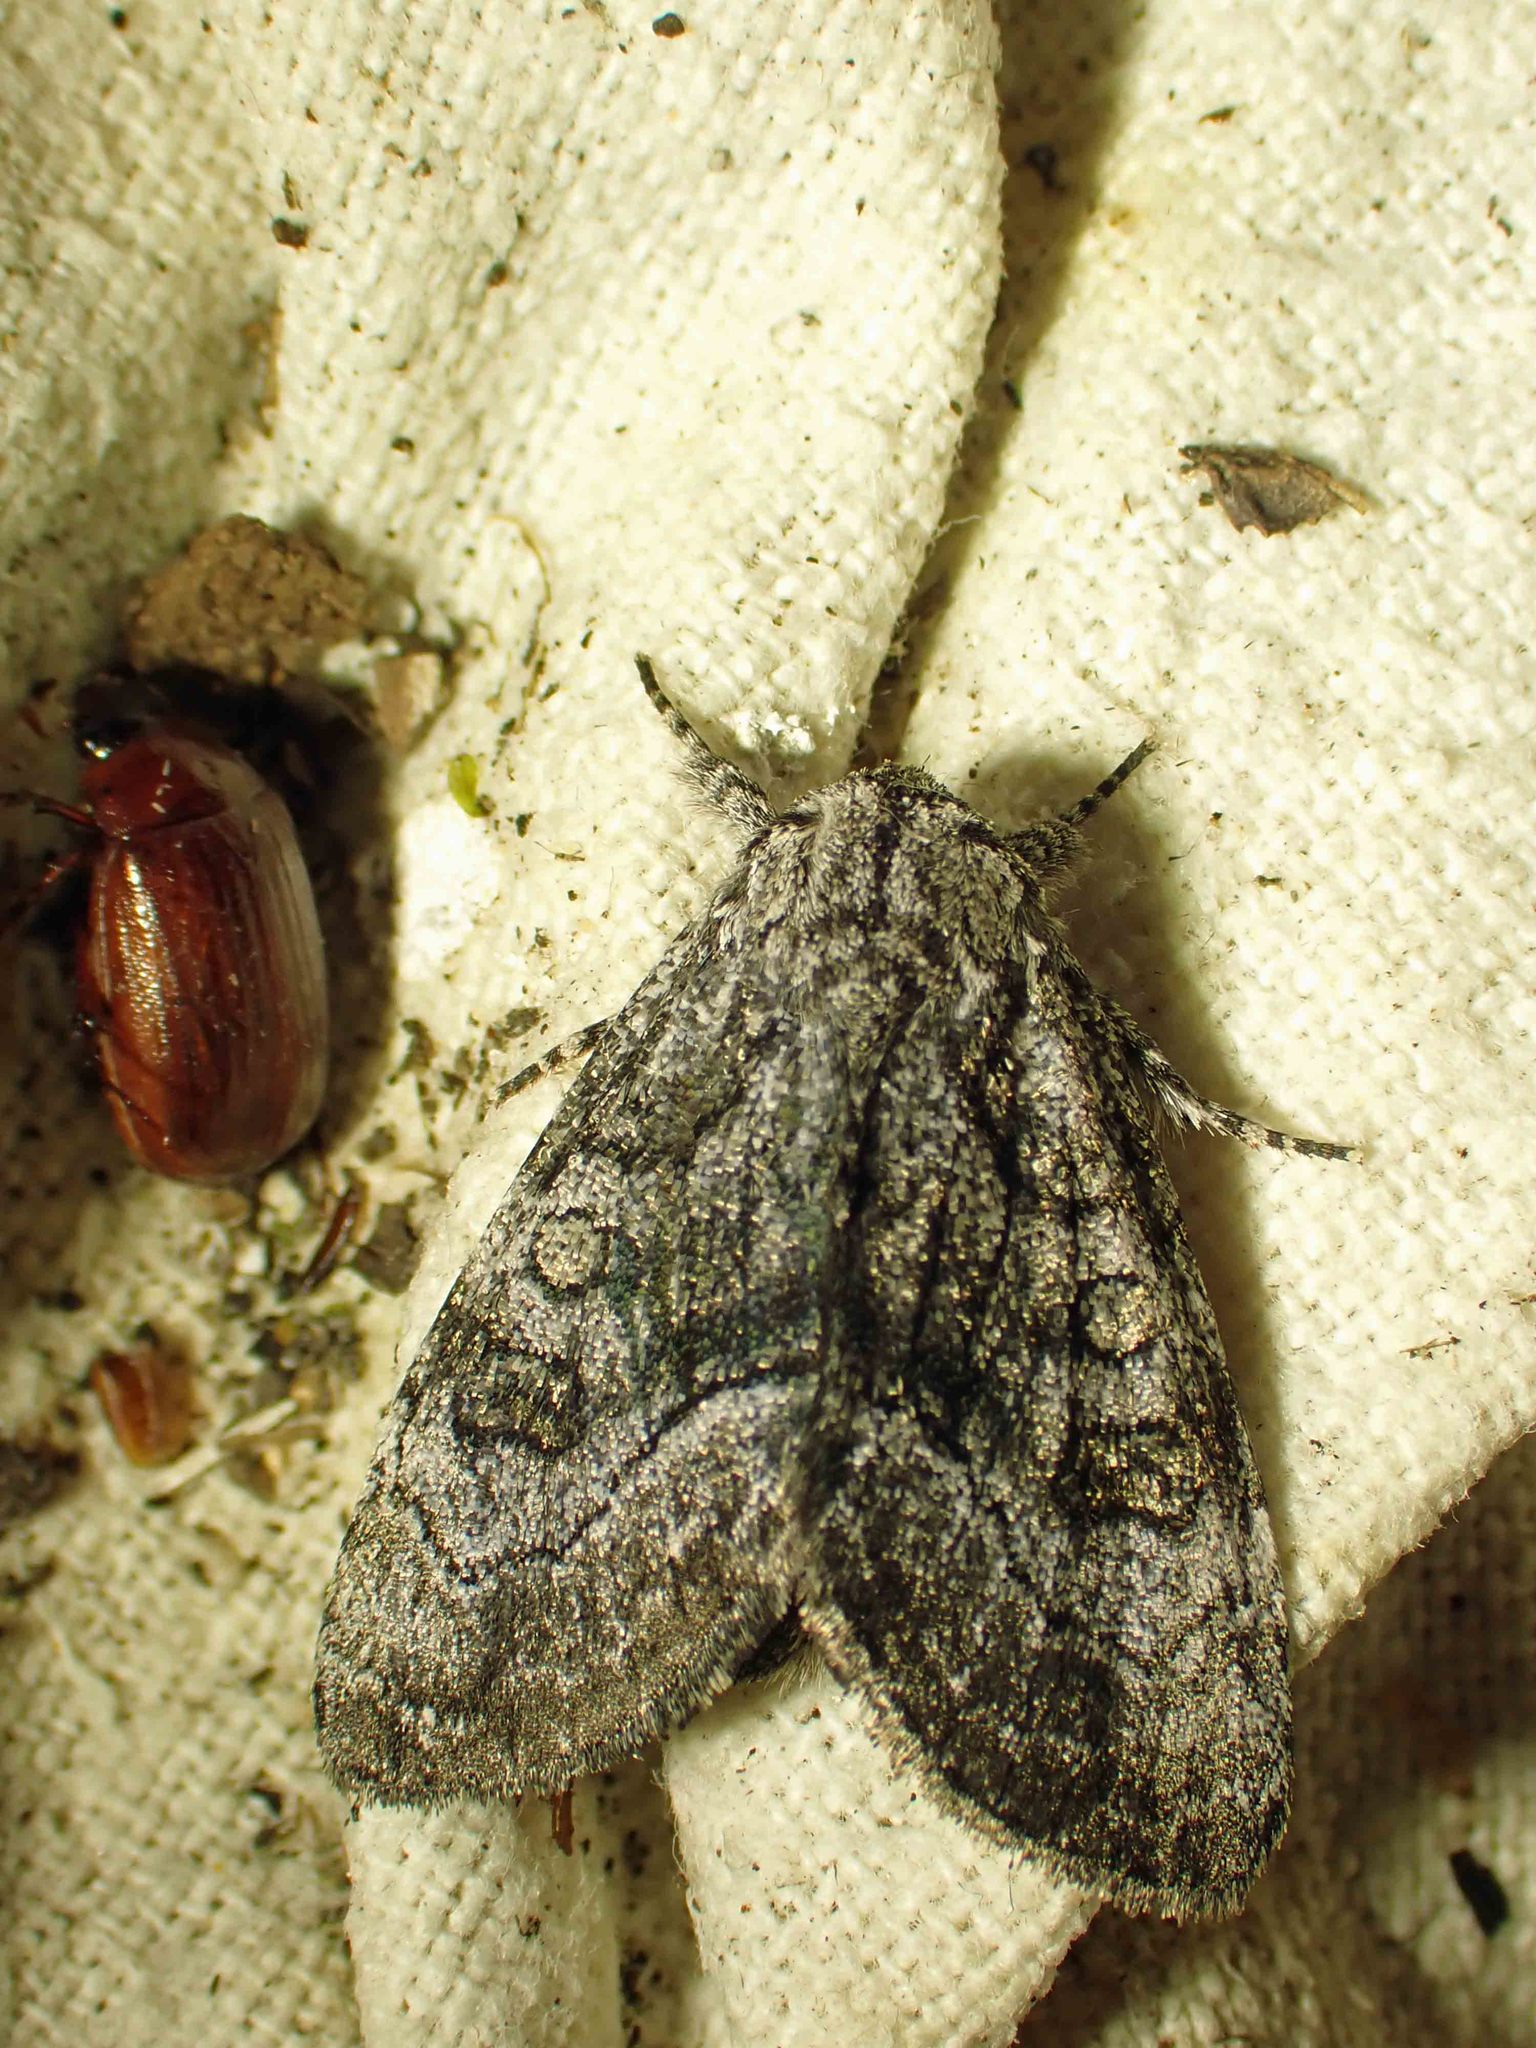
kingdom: Animalia
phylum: Arthropoda
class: Insecta
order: Lepidoptera
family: Noctuidae
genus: Raphia
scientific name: Raphia frater
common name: Brother
